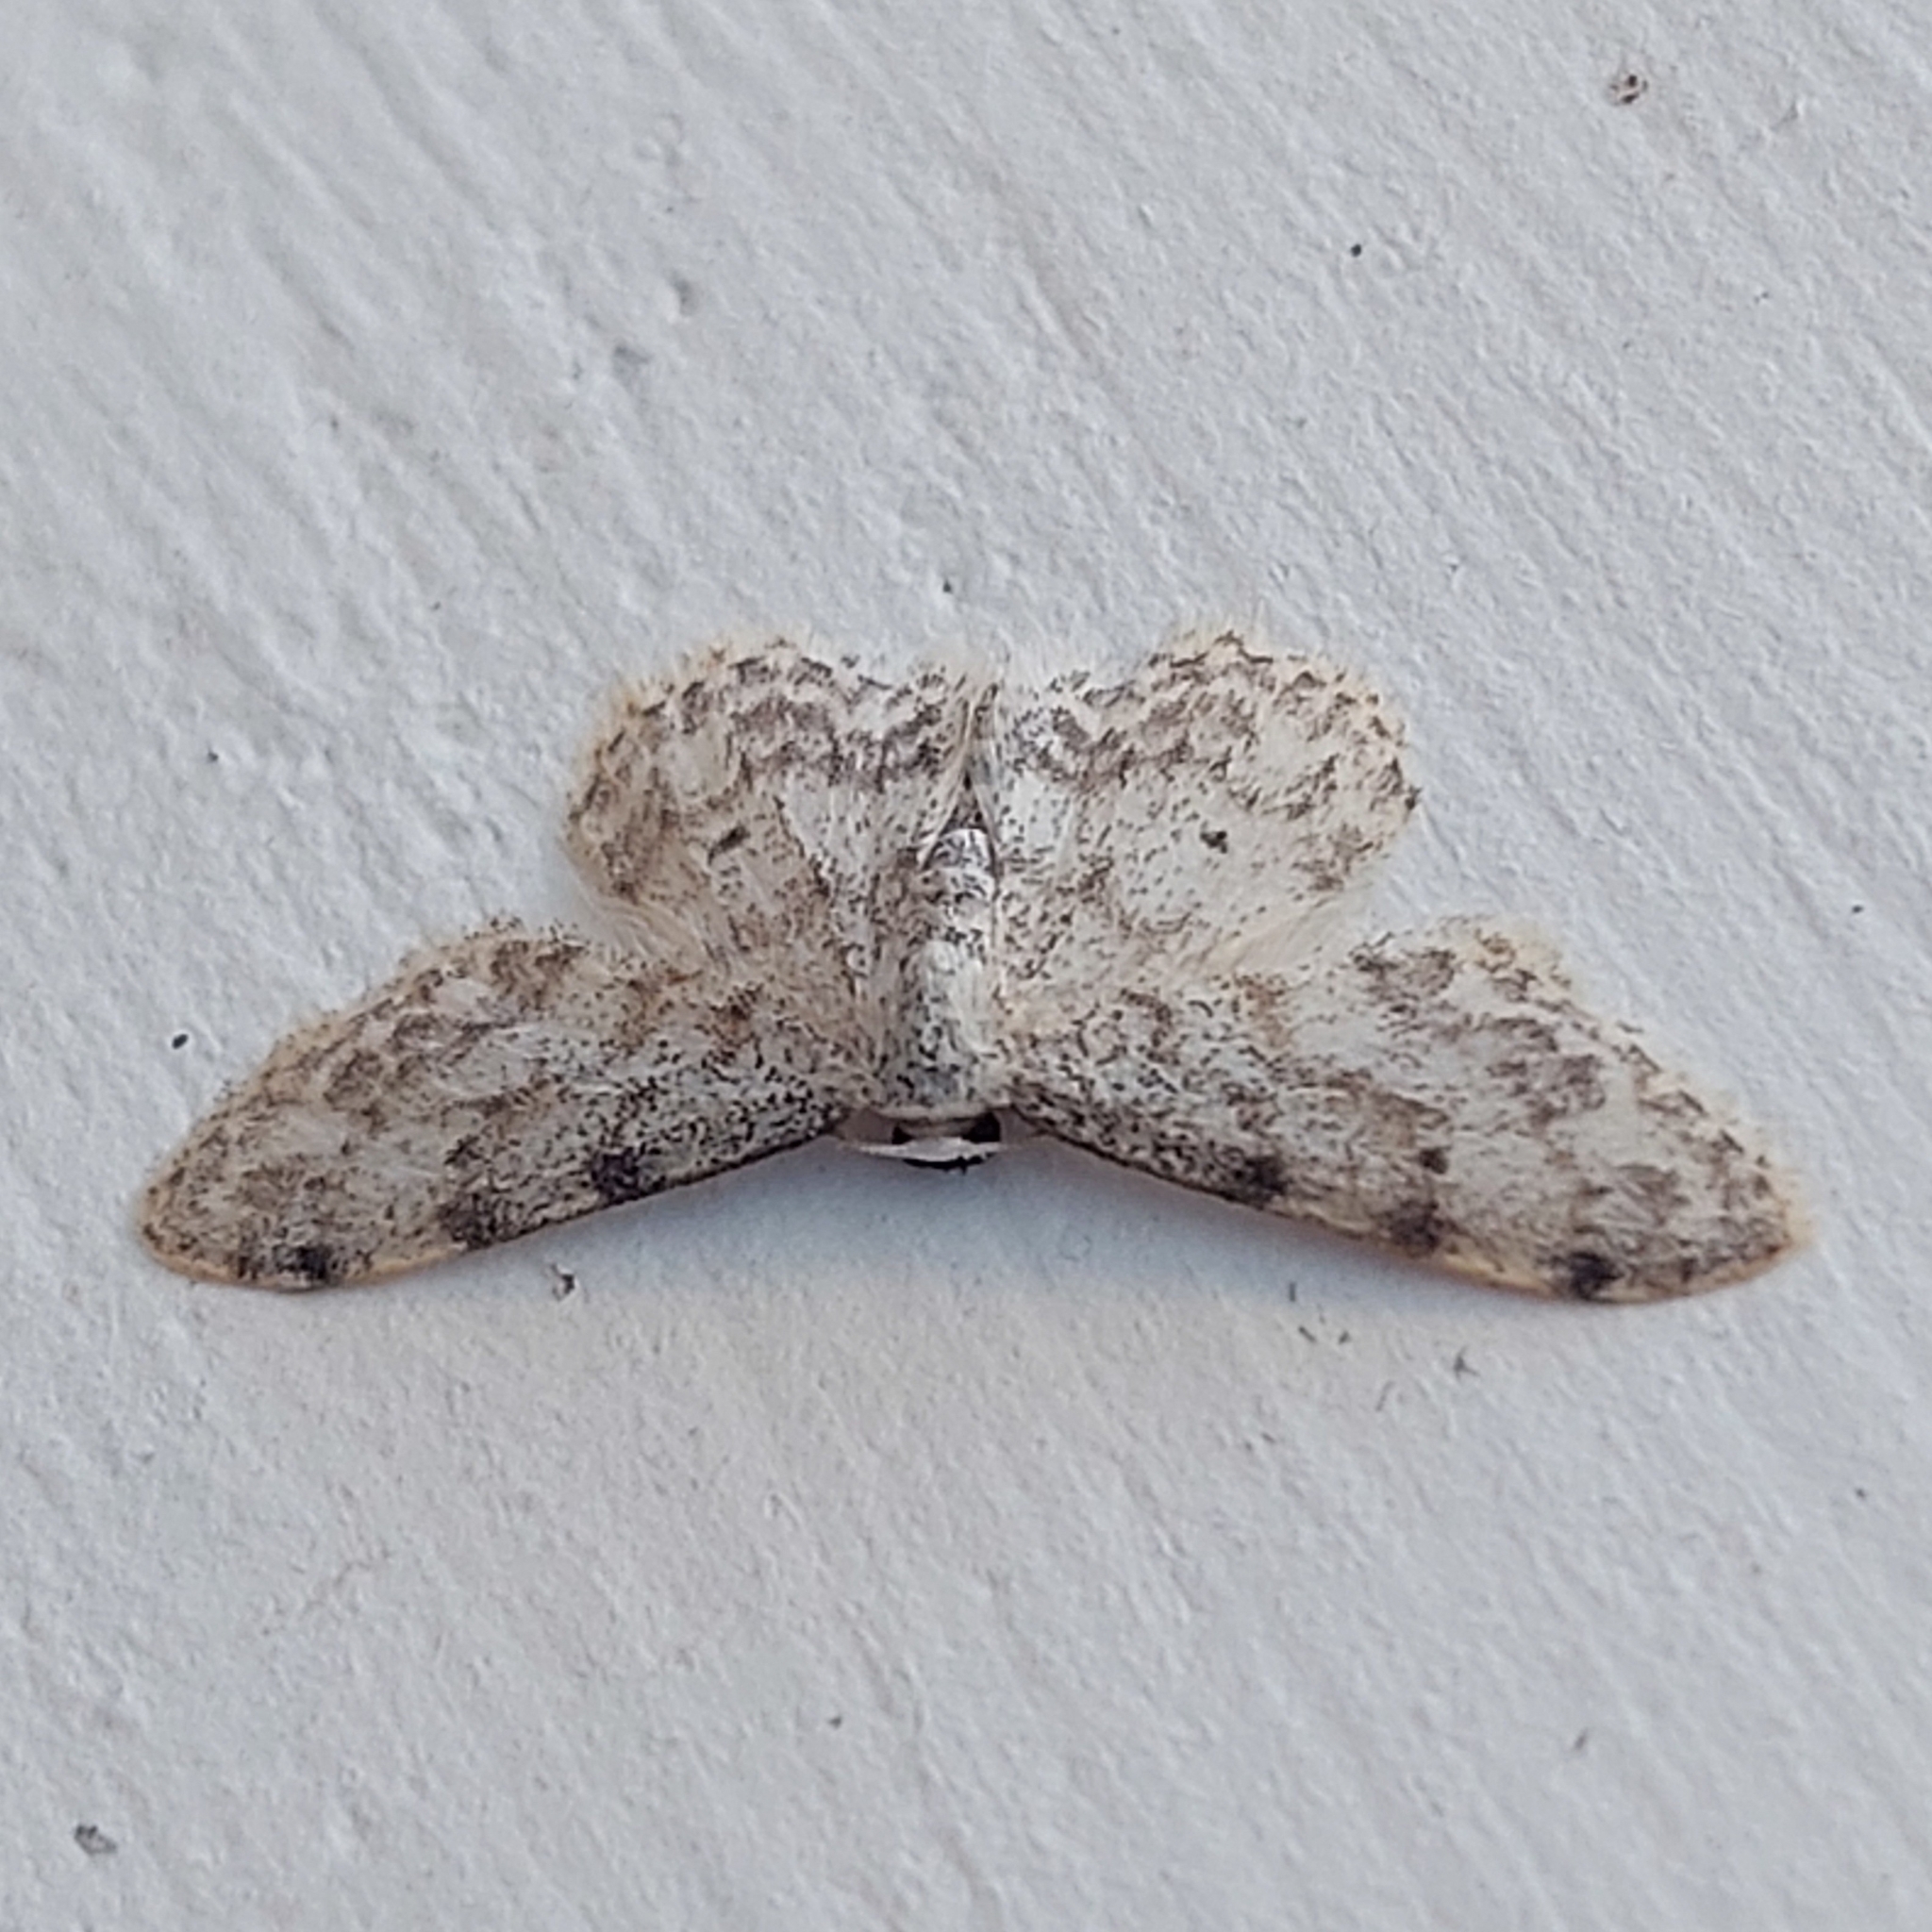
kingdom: Animalia
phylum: Arthropoda
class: Insecta
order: Lepidoptera
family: Geometridae
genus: Idaea
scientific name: Idaea camparia
